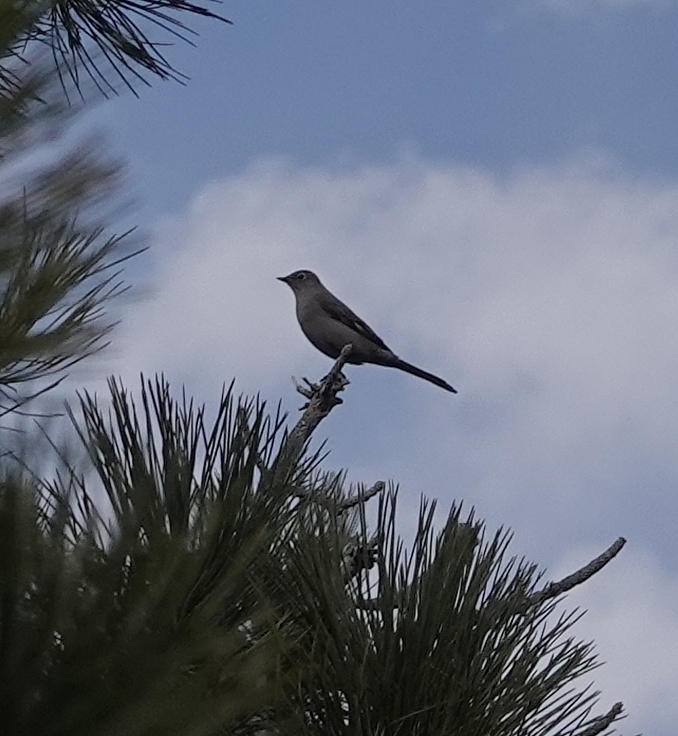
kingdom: Animalia
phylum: Chordata
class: Aves
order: Passeriformes
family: Turdidae
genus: Myadestes
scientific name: Myadestes townsendi
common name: Townsend's solitaire
